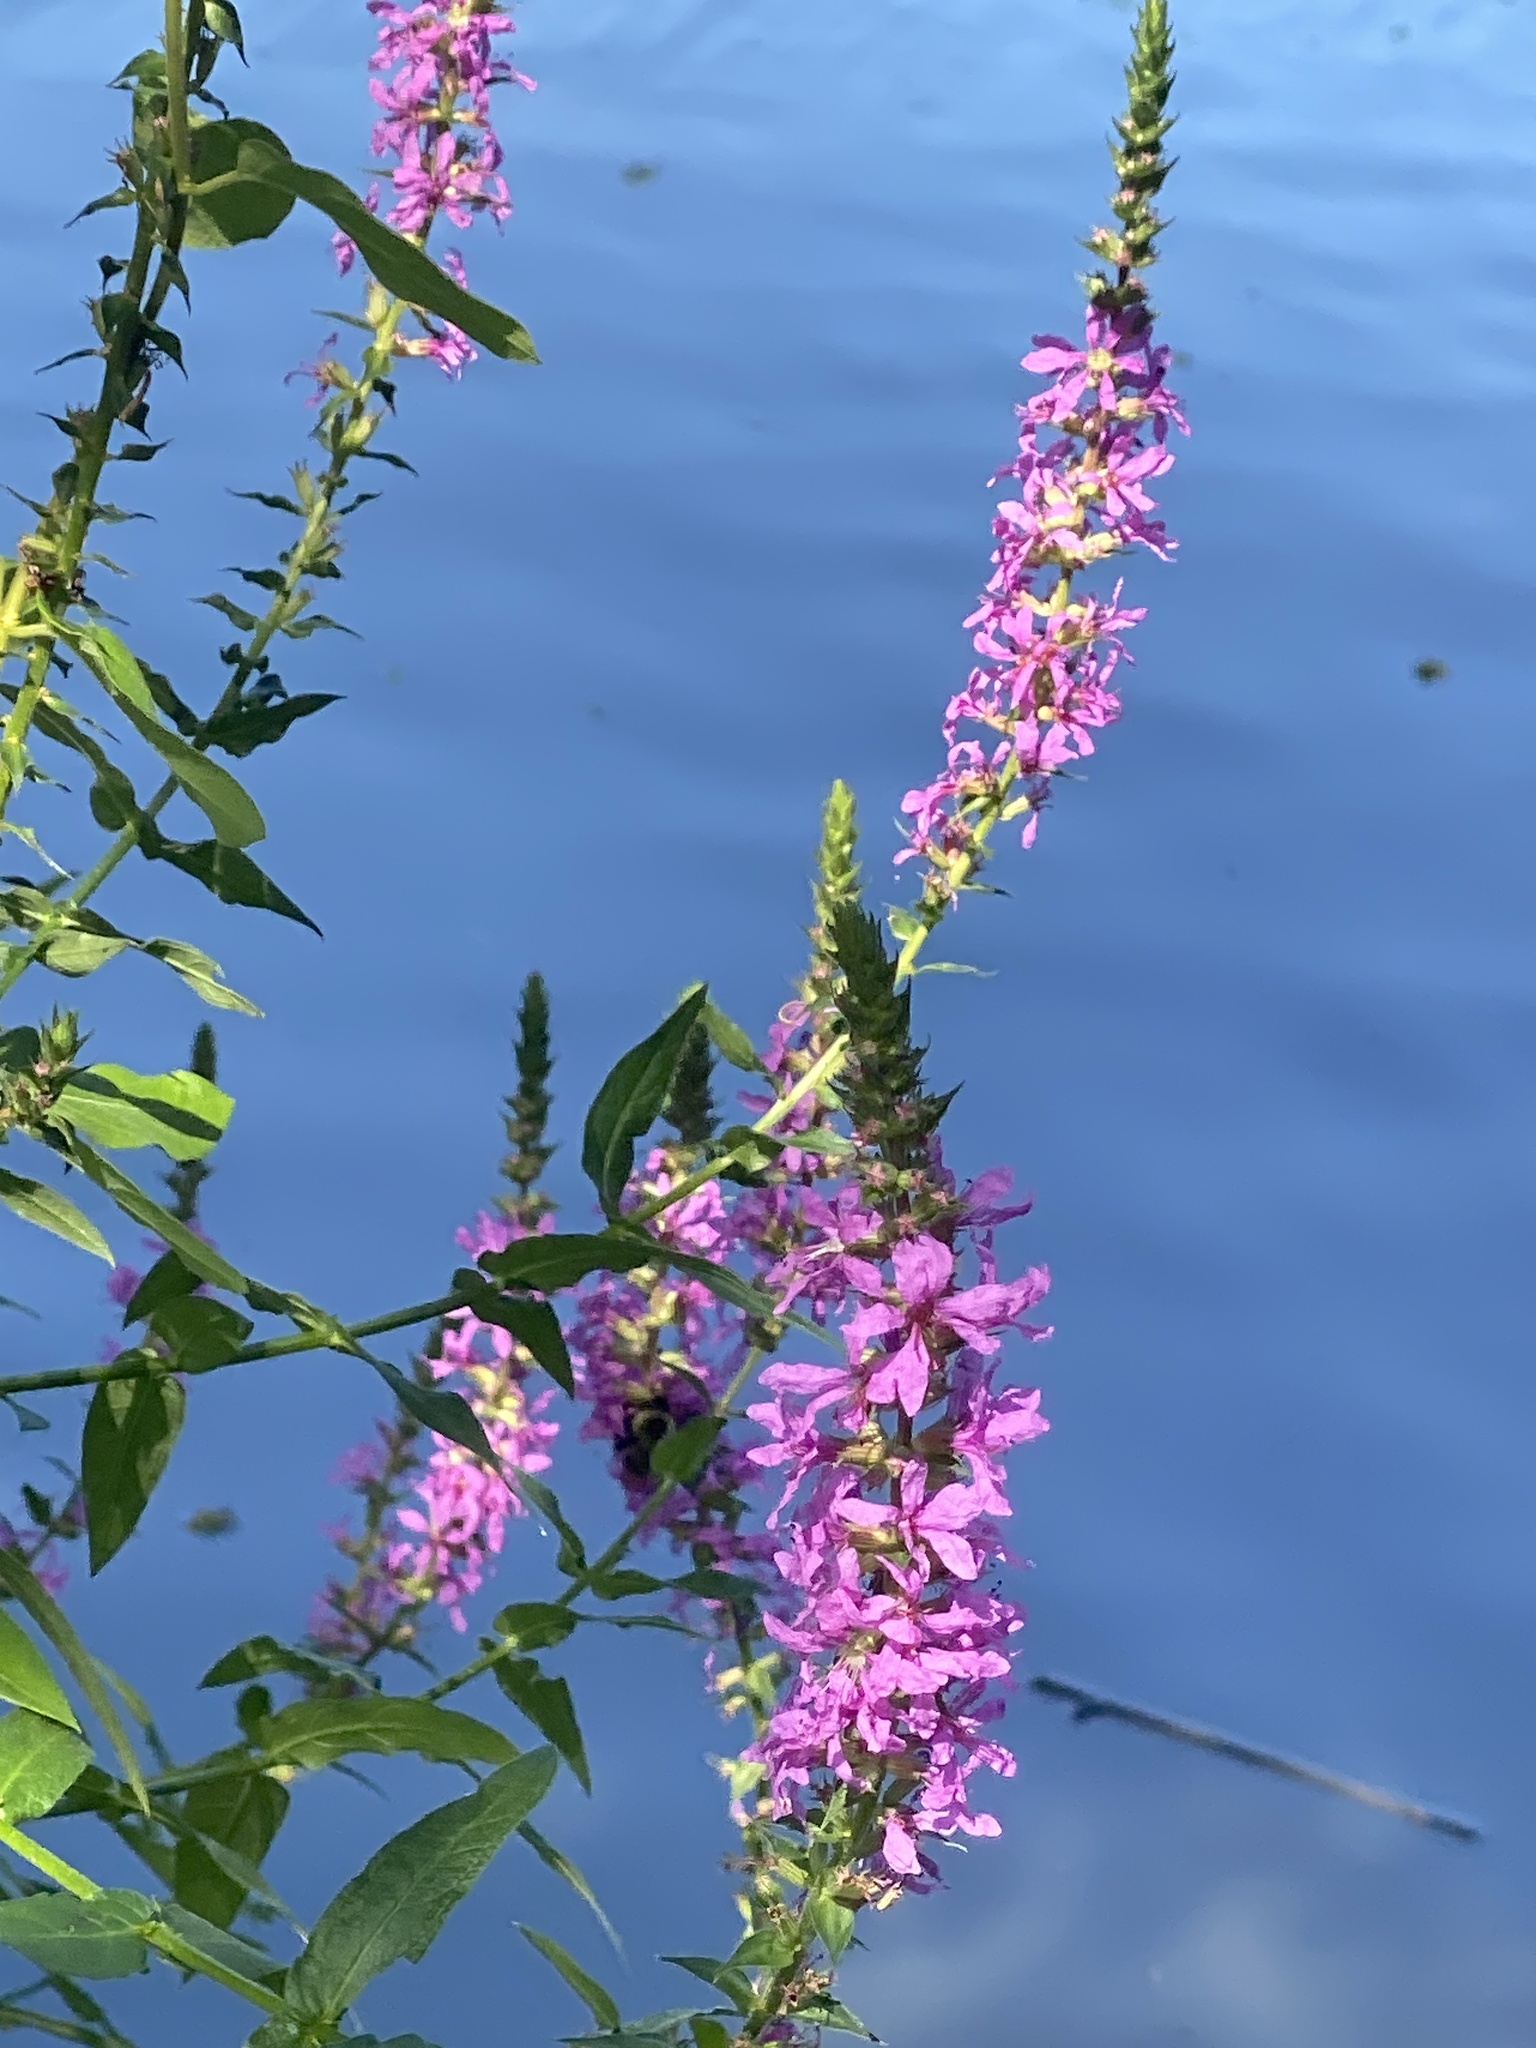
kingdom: Plantae
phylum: Tracheophyta
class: Magnoliopsida
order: Myrtales
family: Lythraceae
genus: Lythrum
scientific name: Lythrum salicaria
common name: Purple loosestrife
